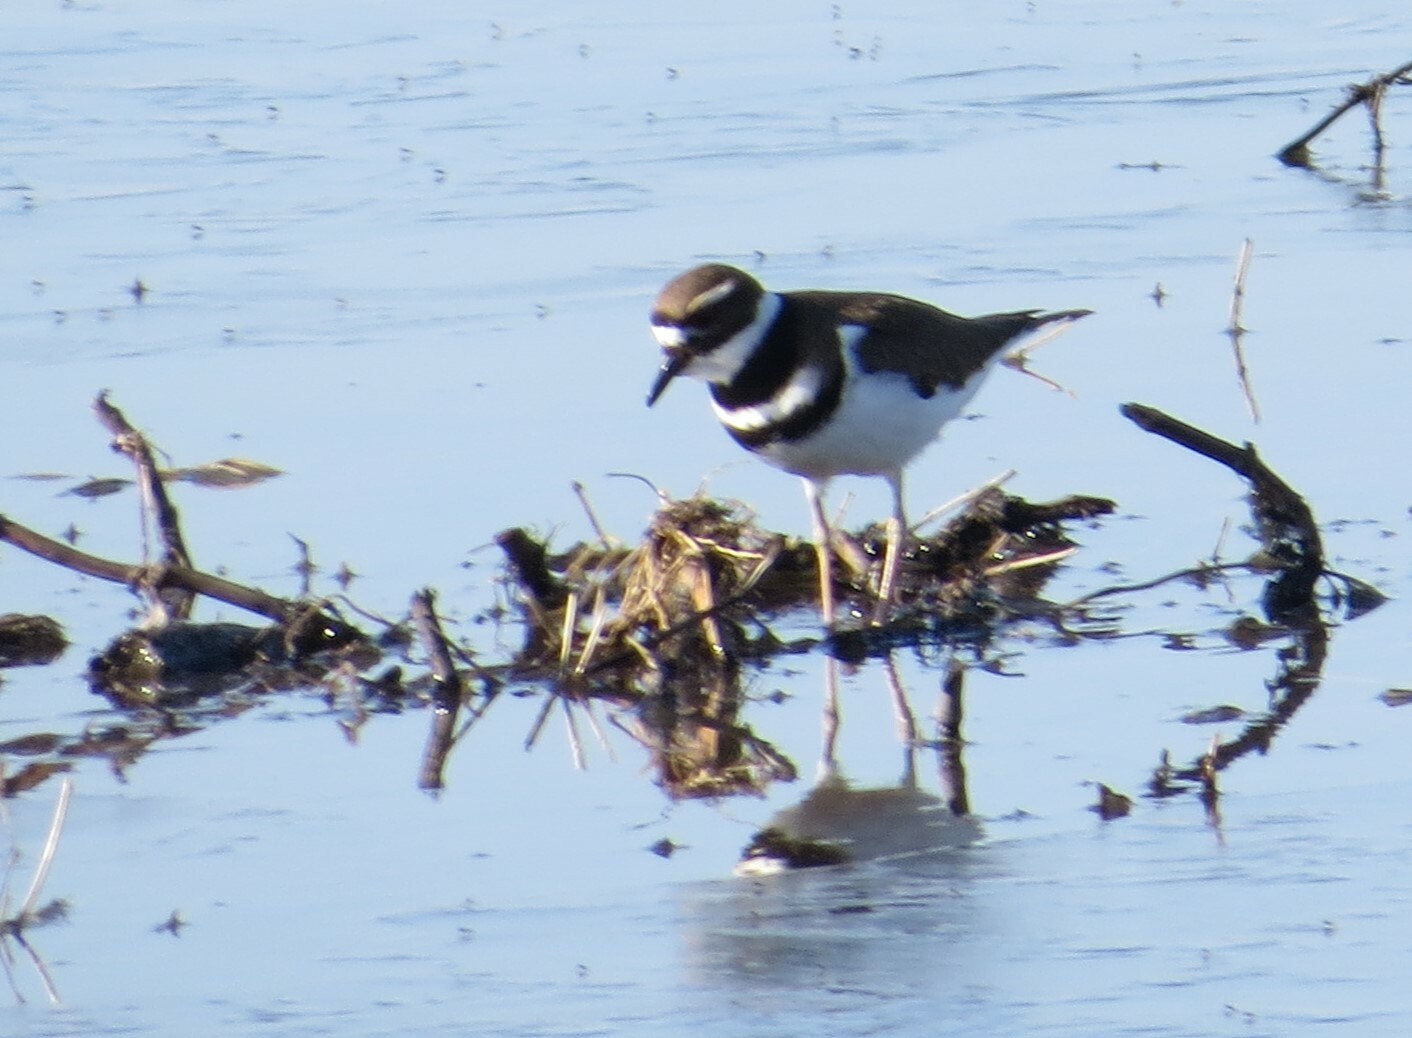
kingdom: Animalia
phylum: Chordata
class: Aves
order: Charadriiformes
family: Charadriidae
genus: Charadrius
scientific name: Charadrius vociferus
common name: Killdeer
